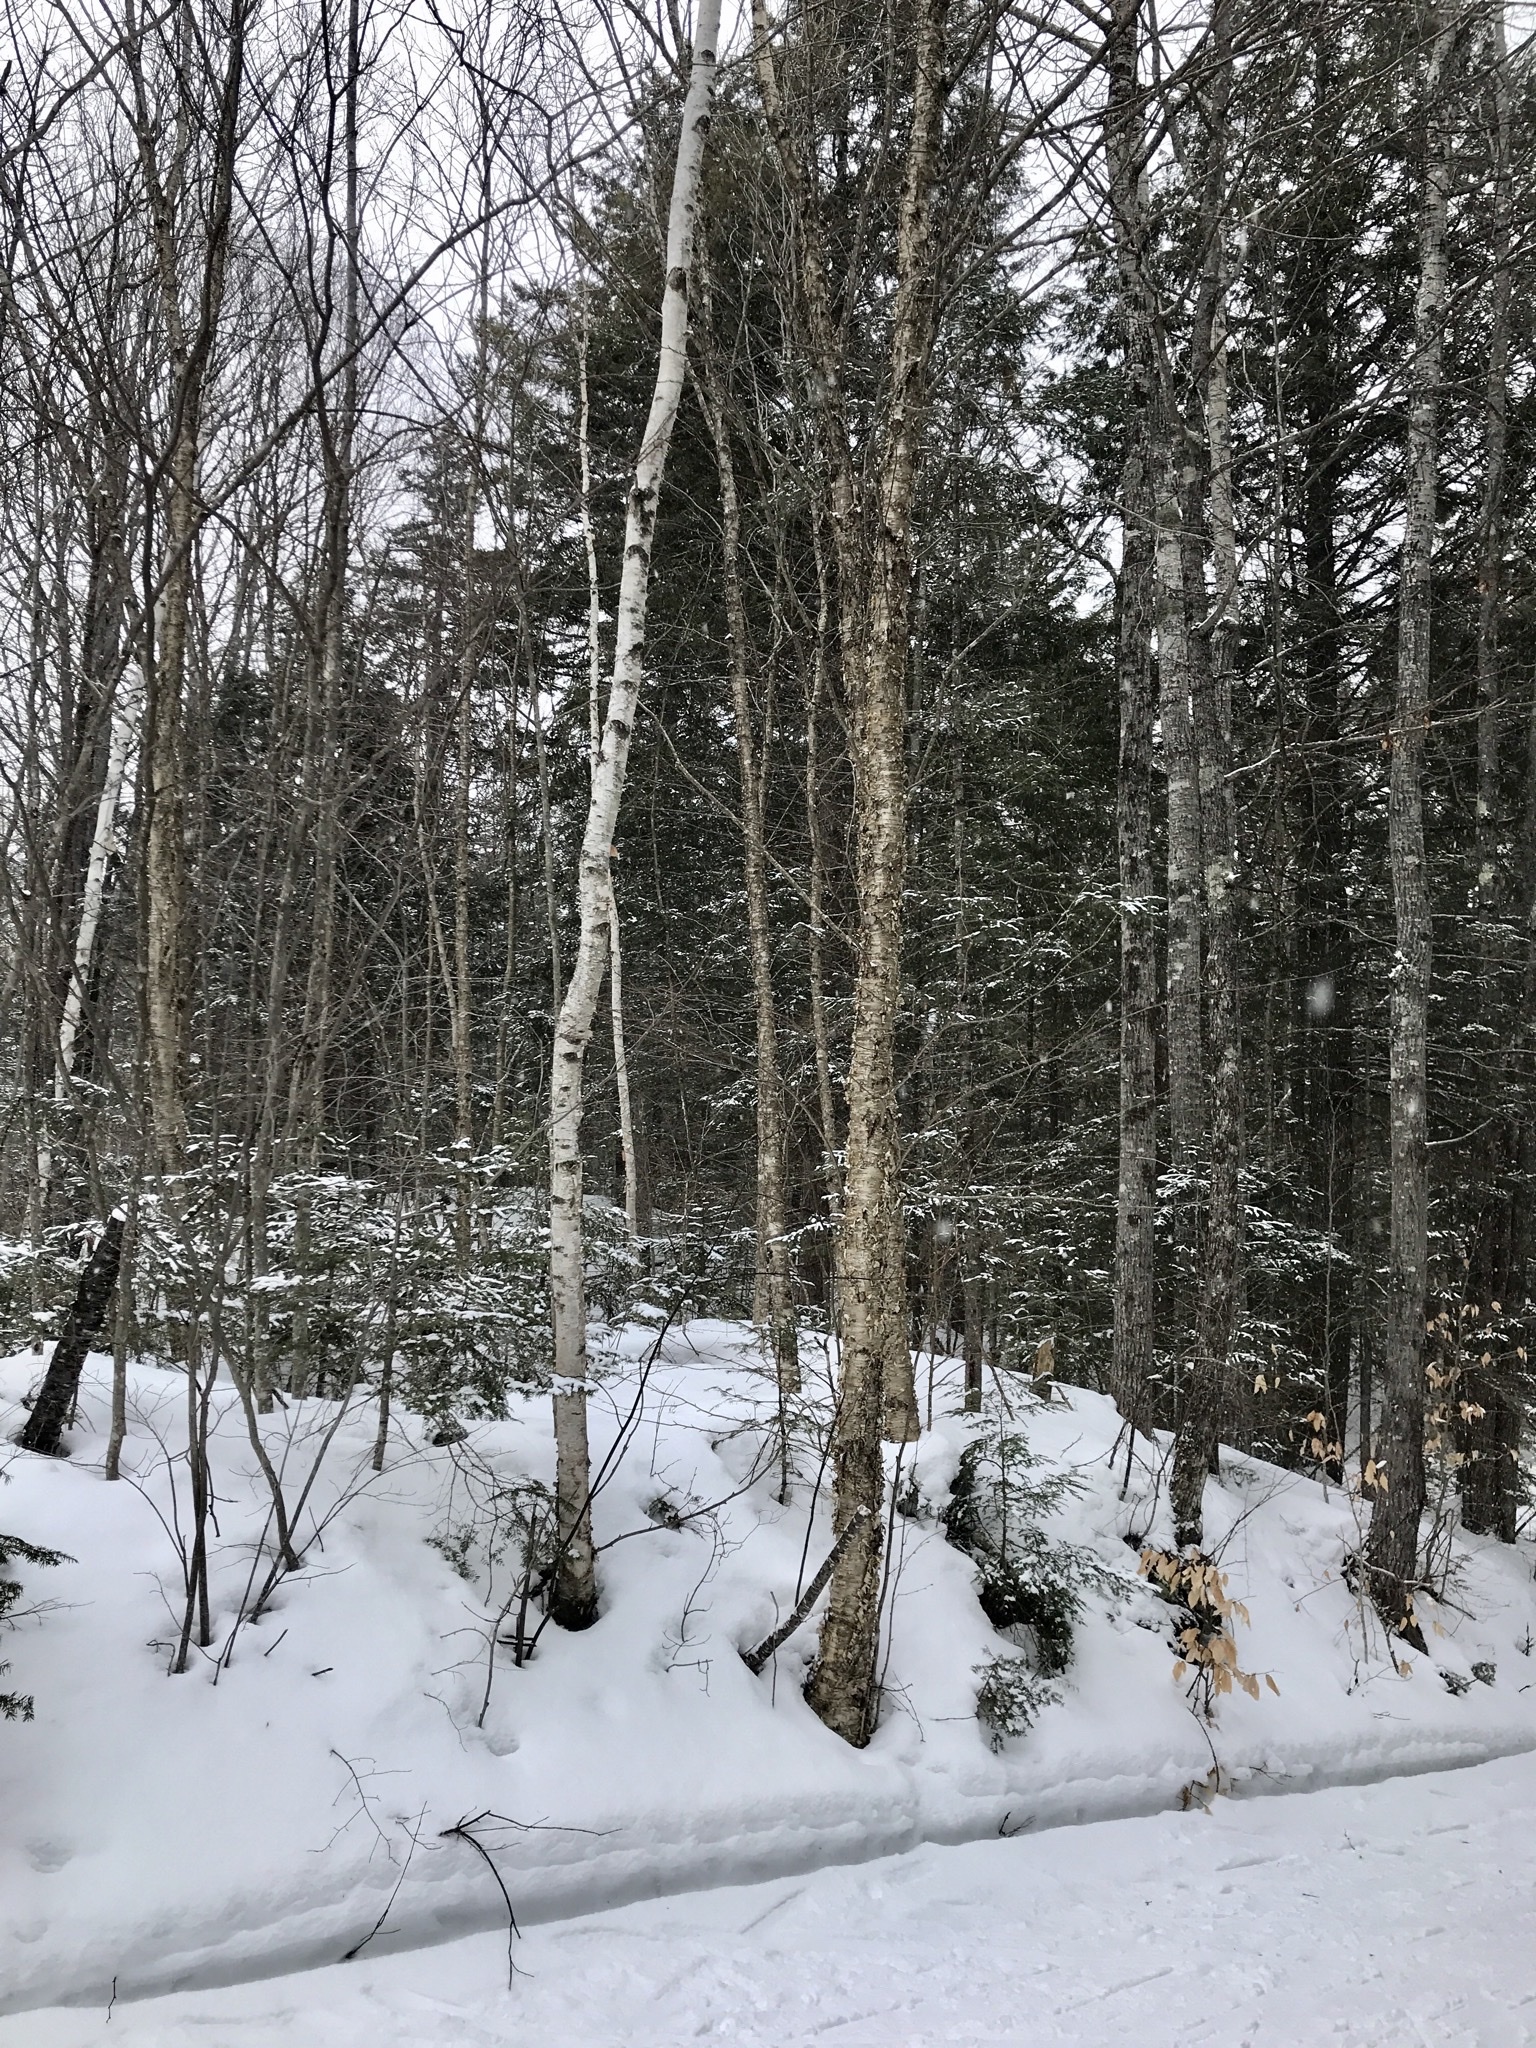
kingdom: Plantae
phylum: Tracheophyta
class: Magnoliopsida
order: Fagales
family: Betulaceae
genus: Betula
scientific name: Betula papyrifera
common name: Paper birch
